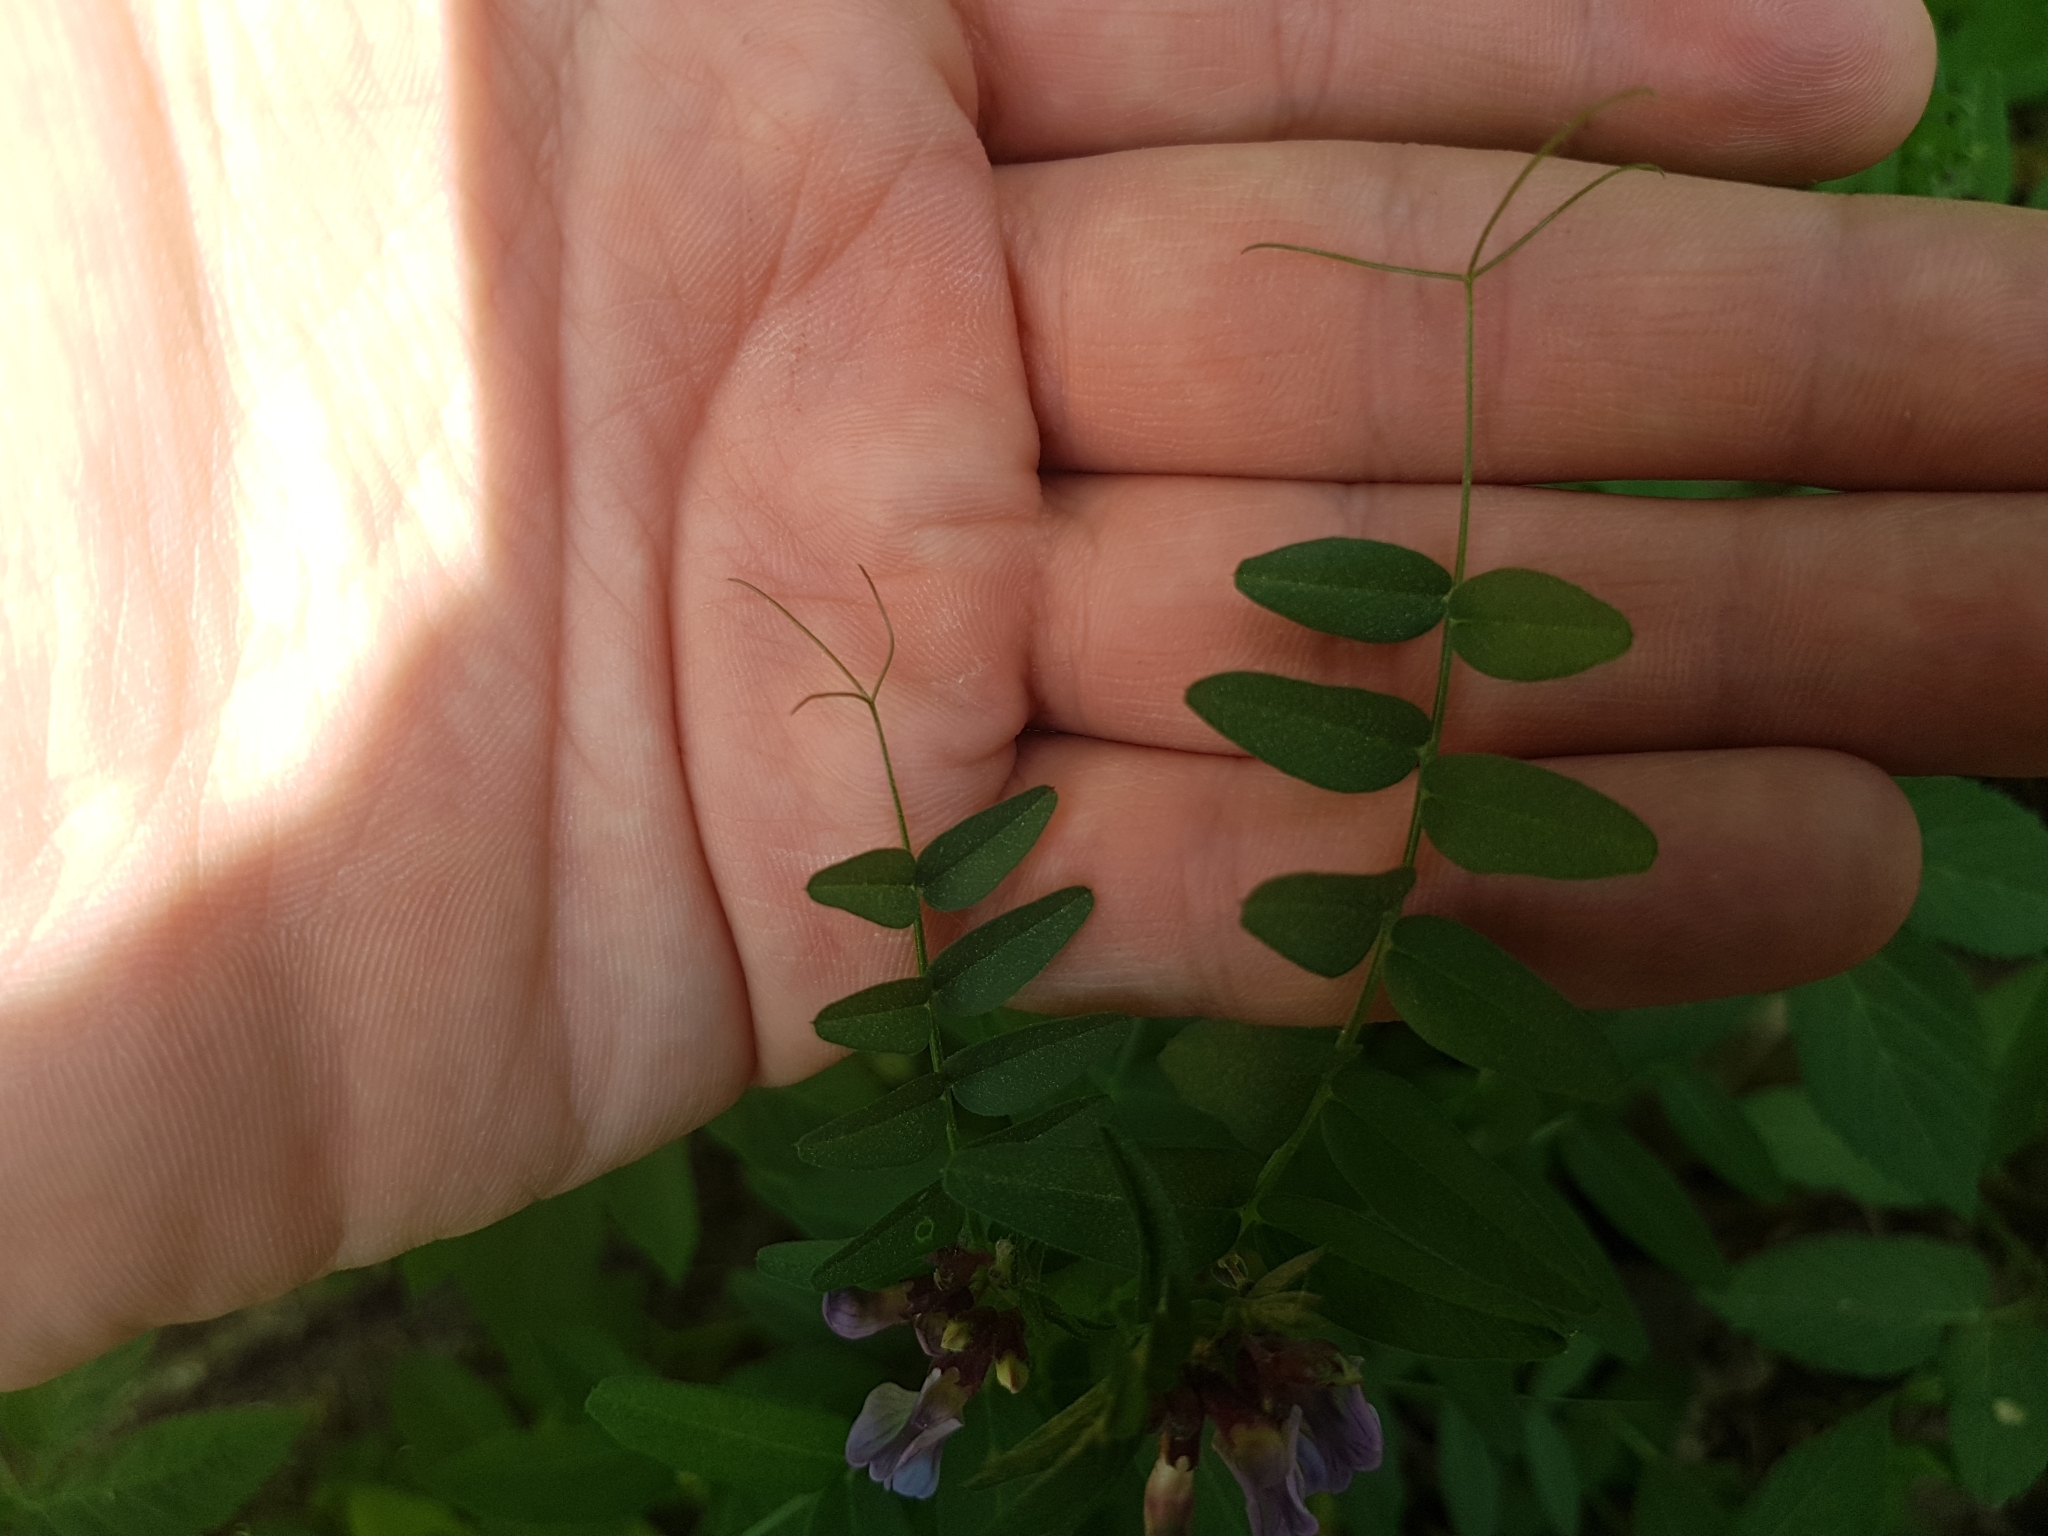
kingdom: Plantae
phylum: Tracheophyta
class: Magnoliopsida
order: Fabales
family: Fabaceae
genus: Vicia
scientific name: Vicia sepium
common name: Bush vetch
